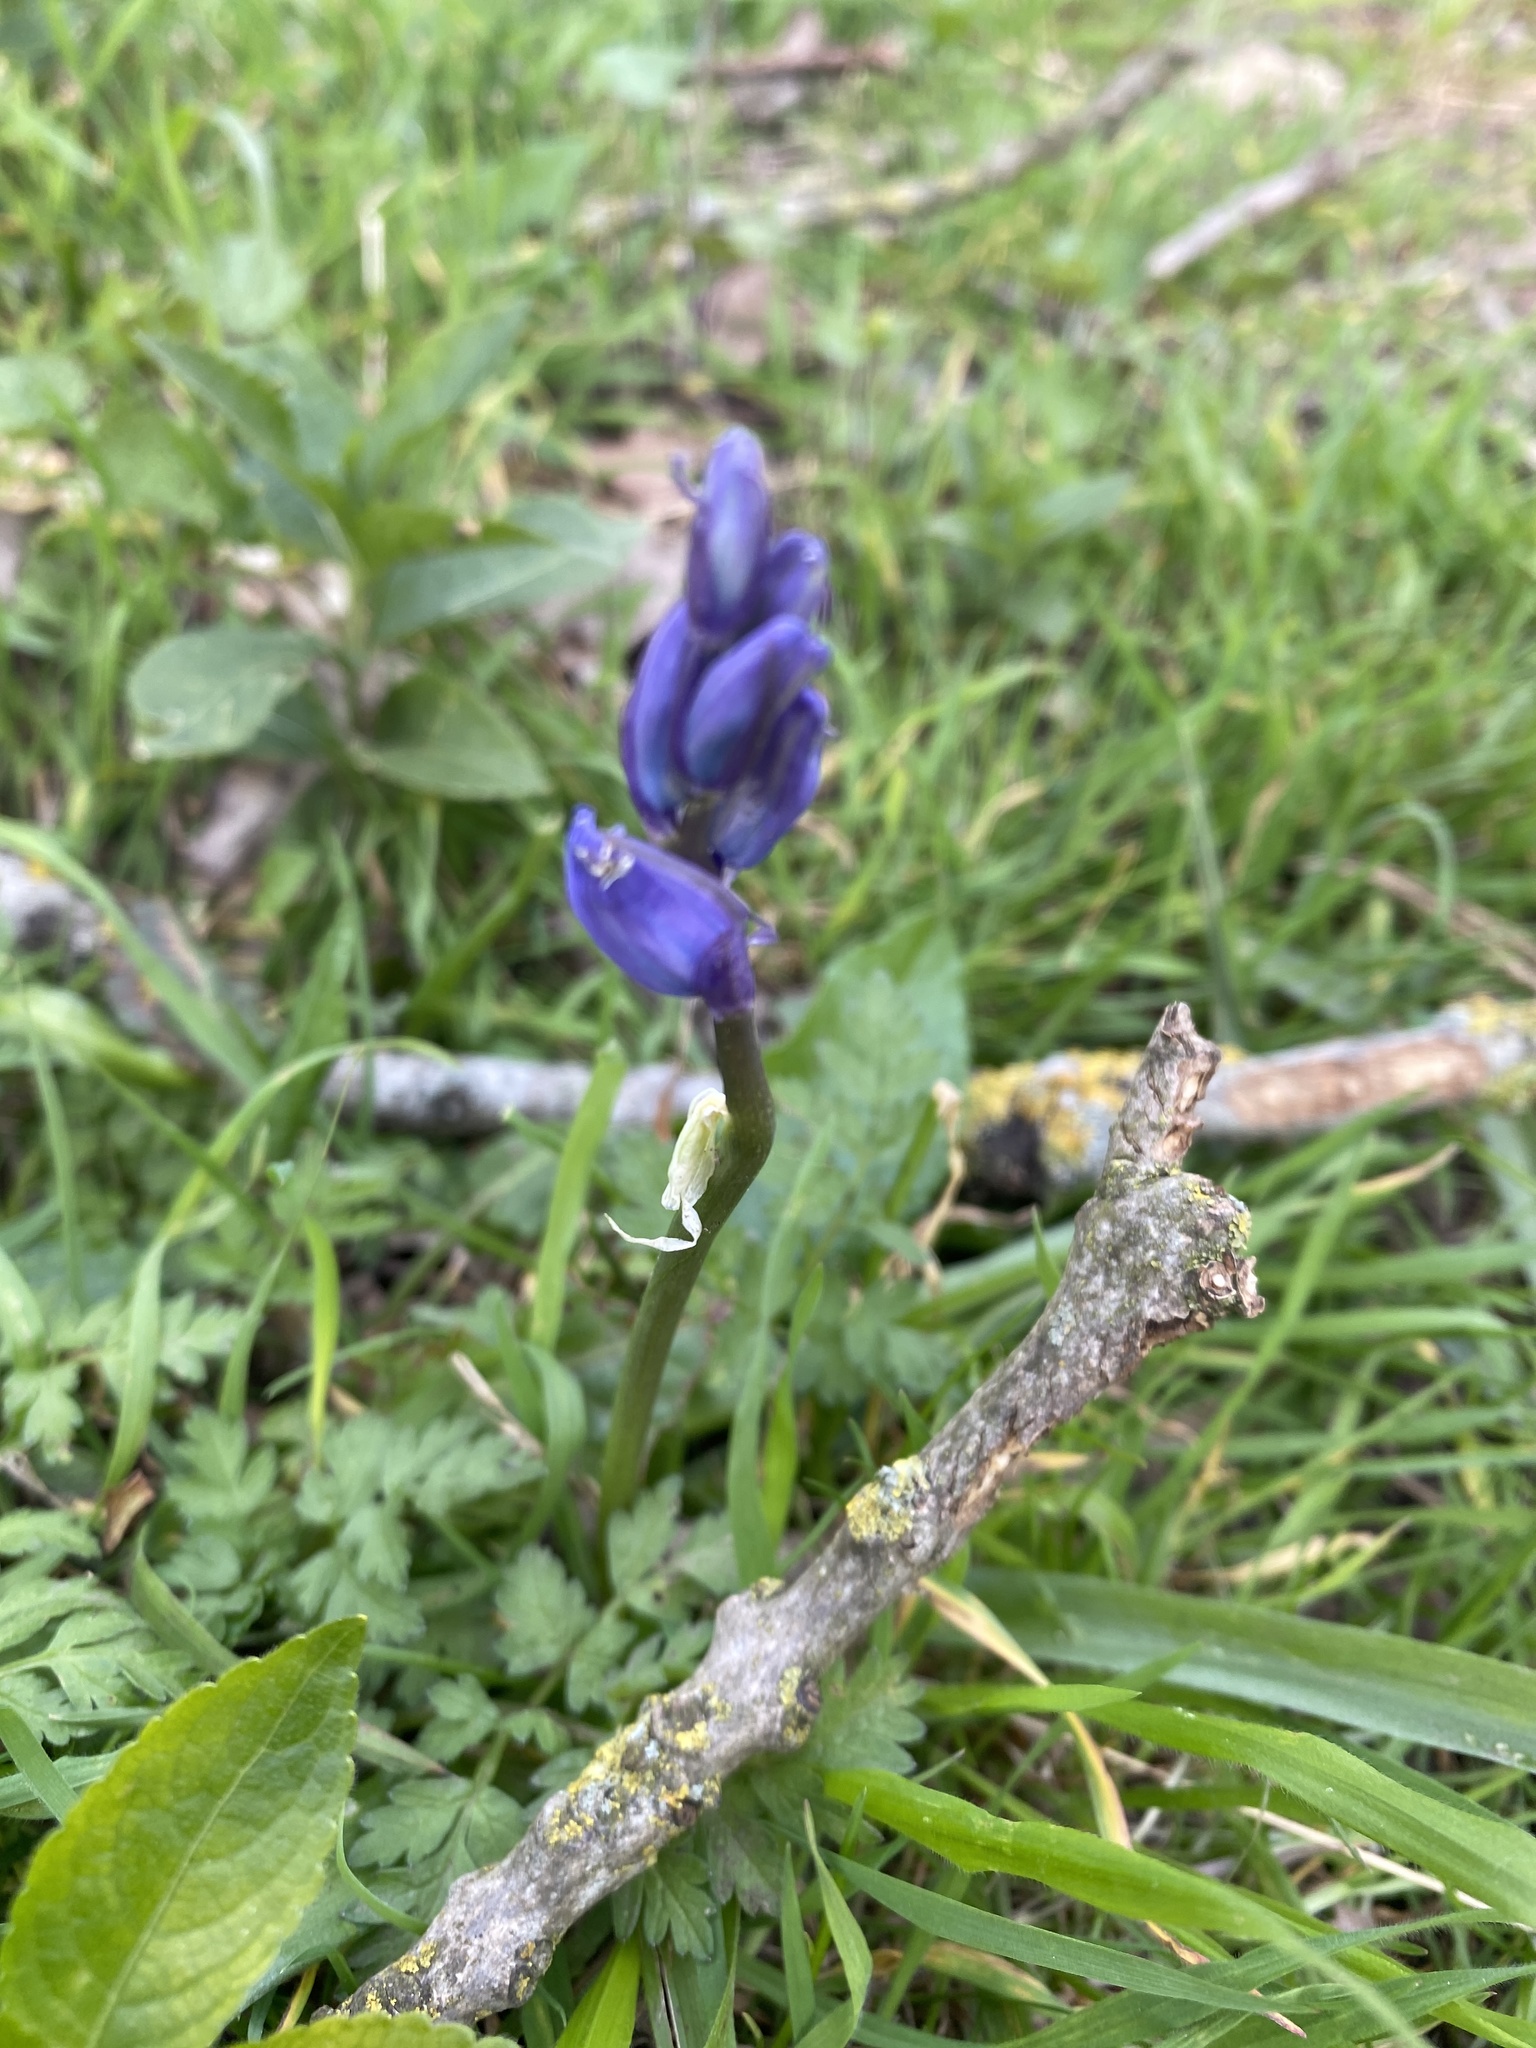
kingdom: Plantae
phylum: Tracheophyta
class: Liliopsida
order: Asparagales
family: Asparagaceae
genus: Hyacinthoides
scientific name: Hyacinthoides non-scripta
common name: Bluebell
